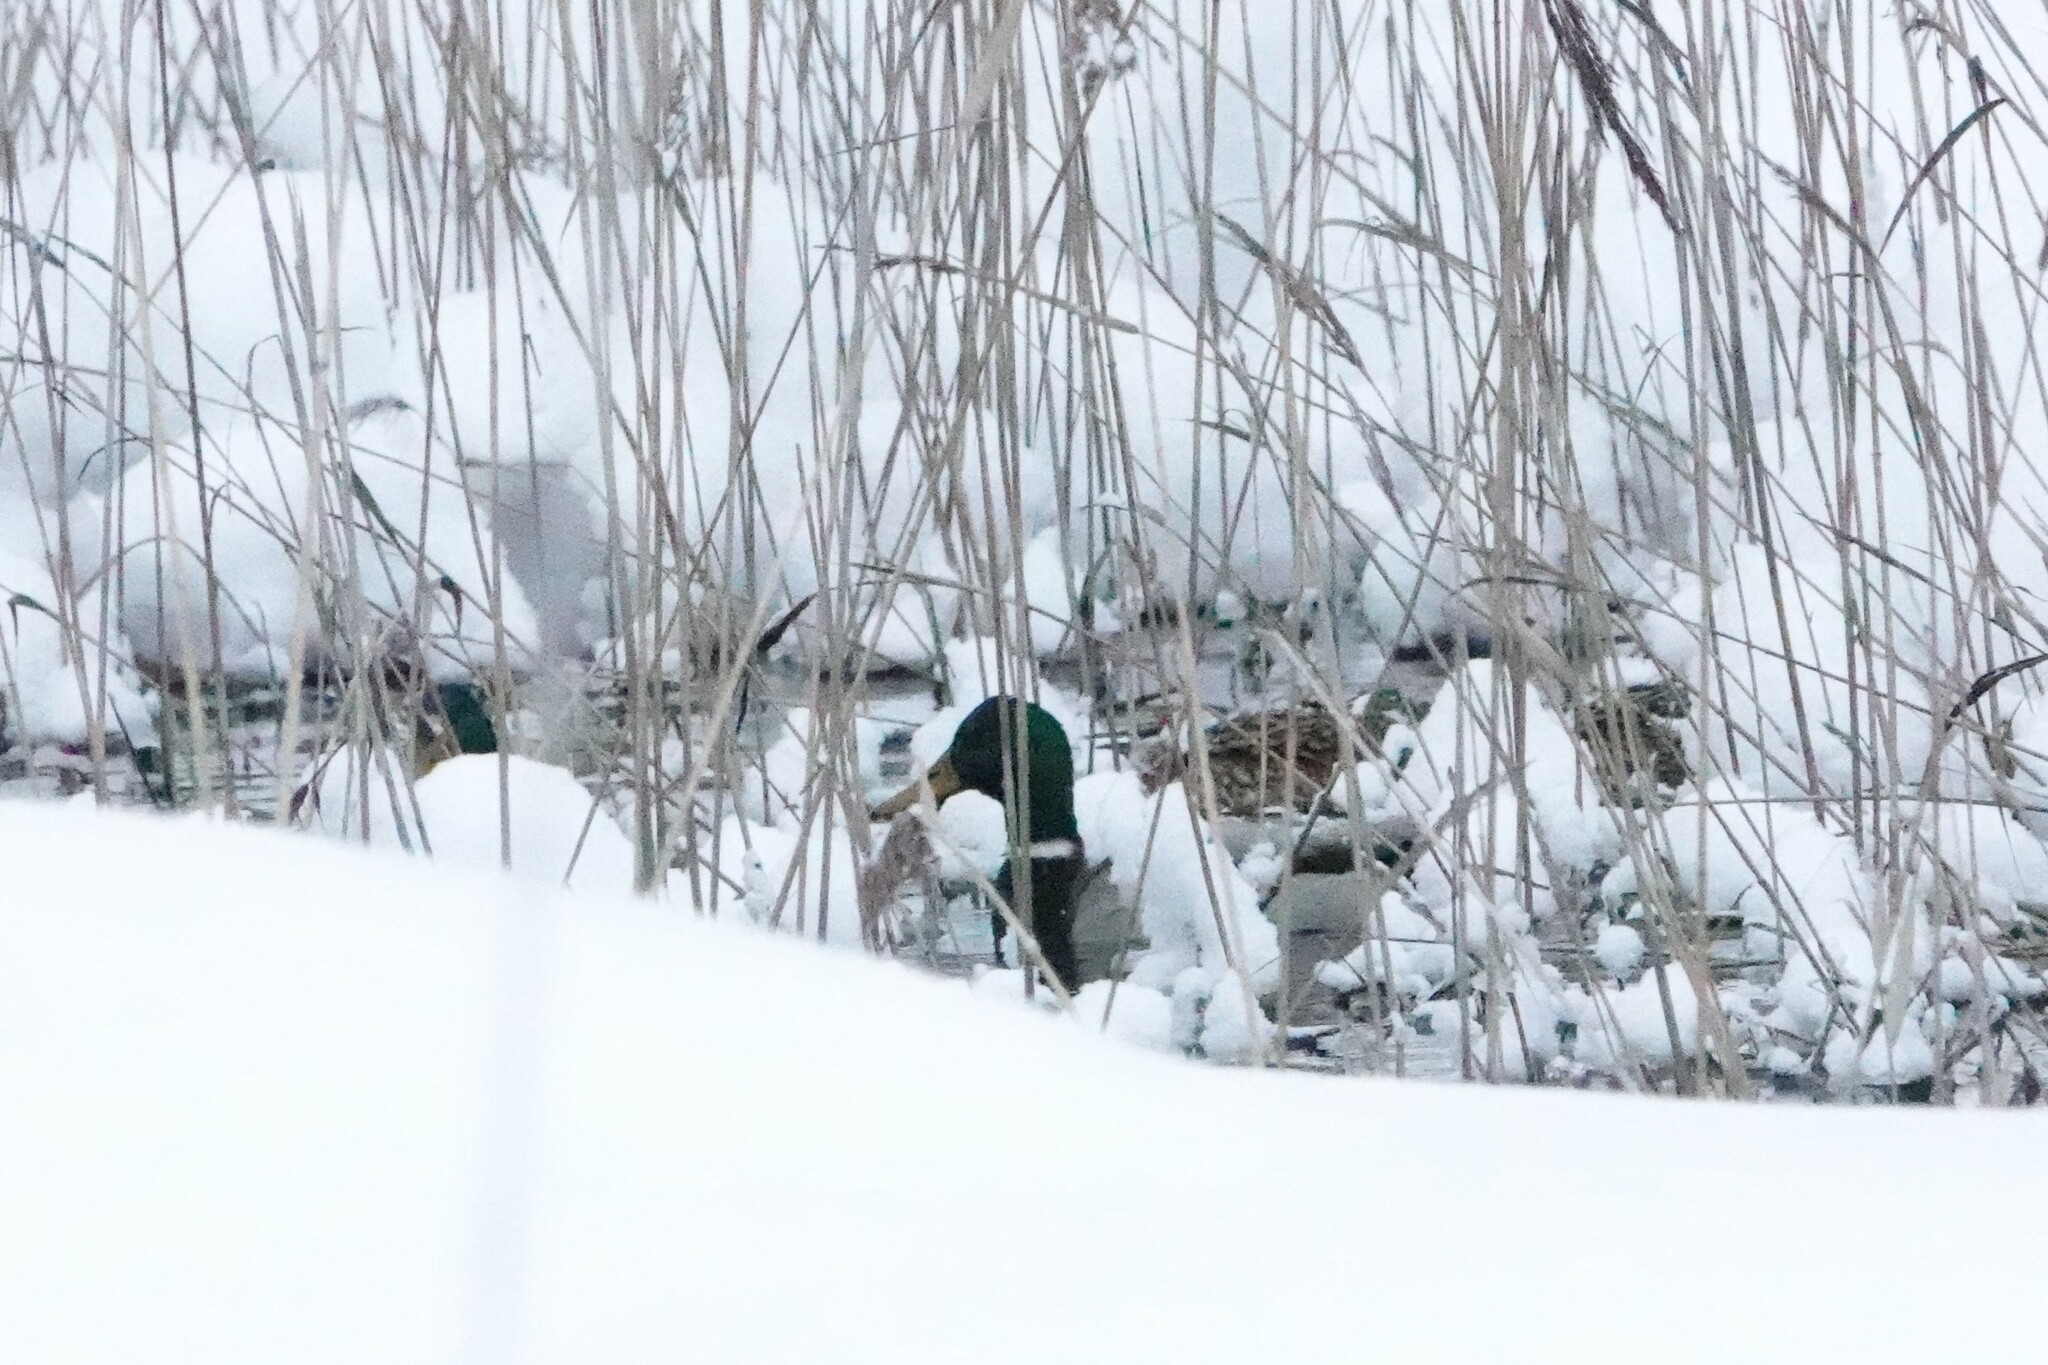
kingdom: Animalia
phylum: Chordata
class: Aves
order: Anseriformes
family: Anatidae
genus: Anas
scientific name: Anas platyrhynchos
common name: Mallard
